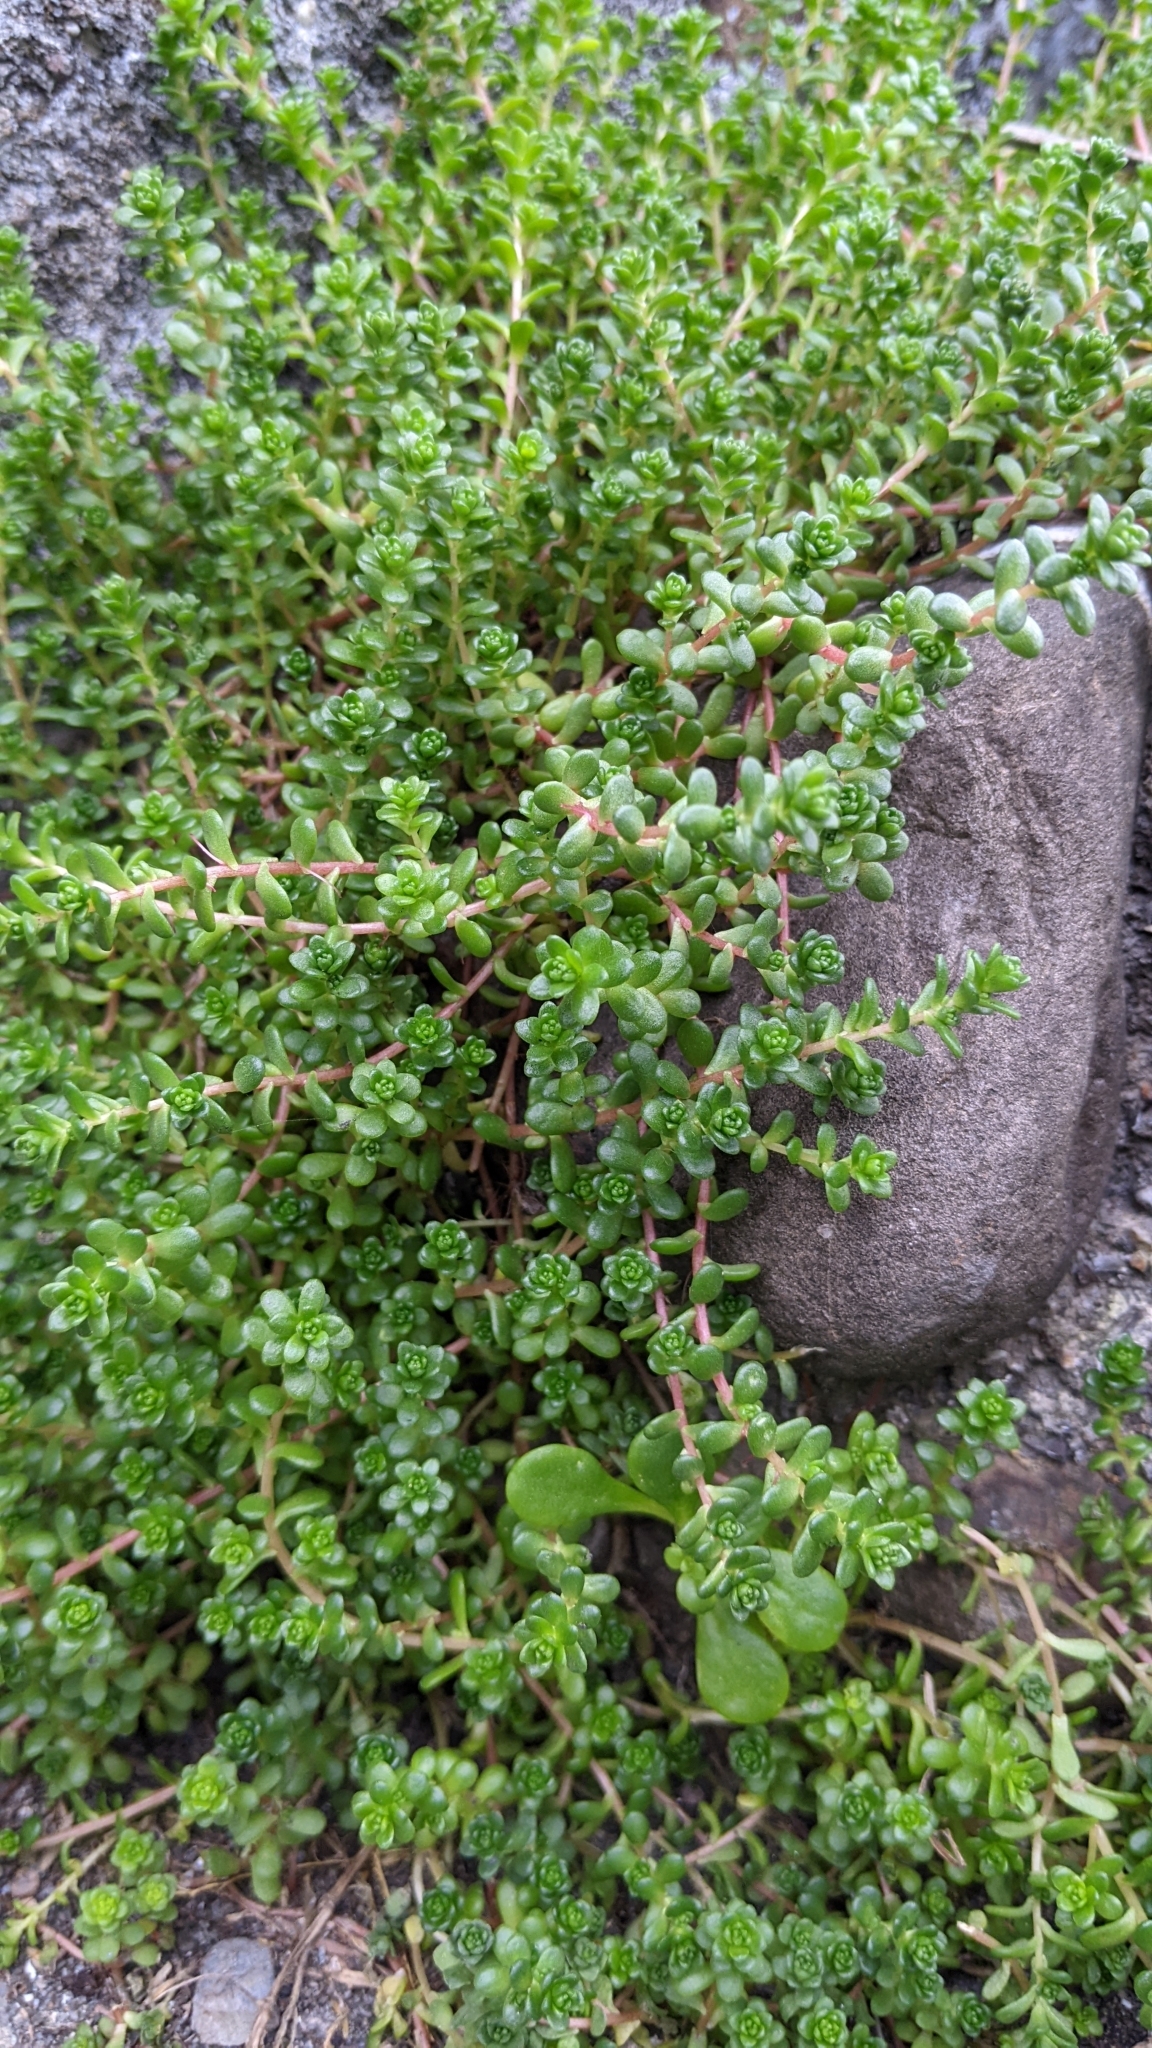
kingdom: Plantae
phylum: Tracheophyta
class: Magnoliopsida
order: Saxifragales
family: Crassulaceae
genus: Sedum
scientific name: Sedum japonicum
